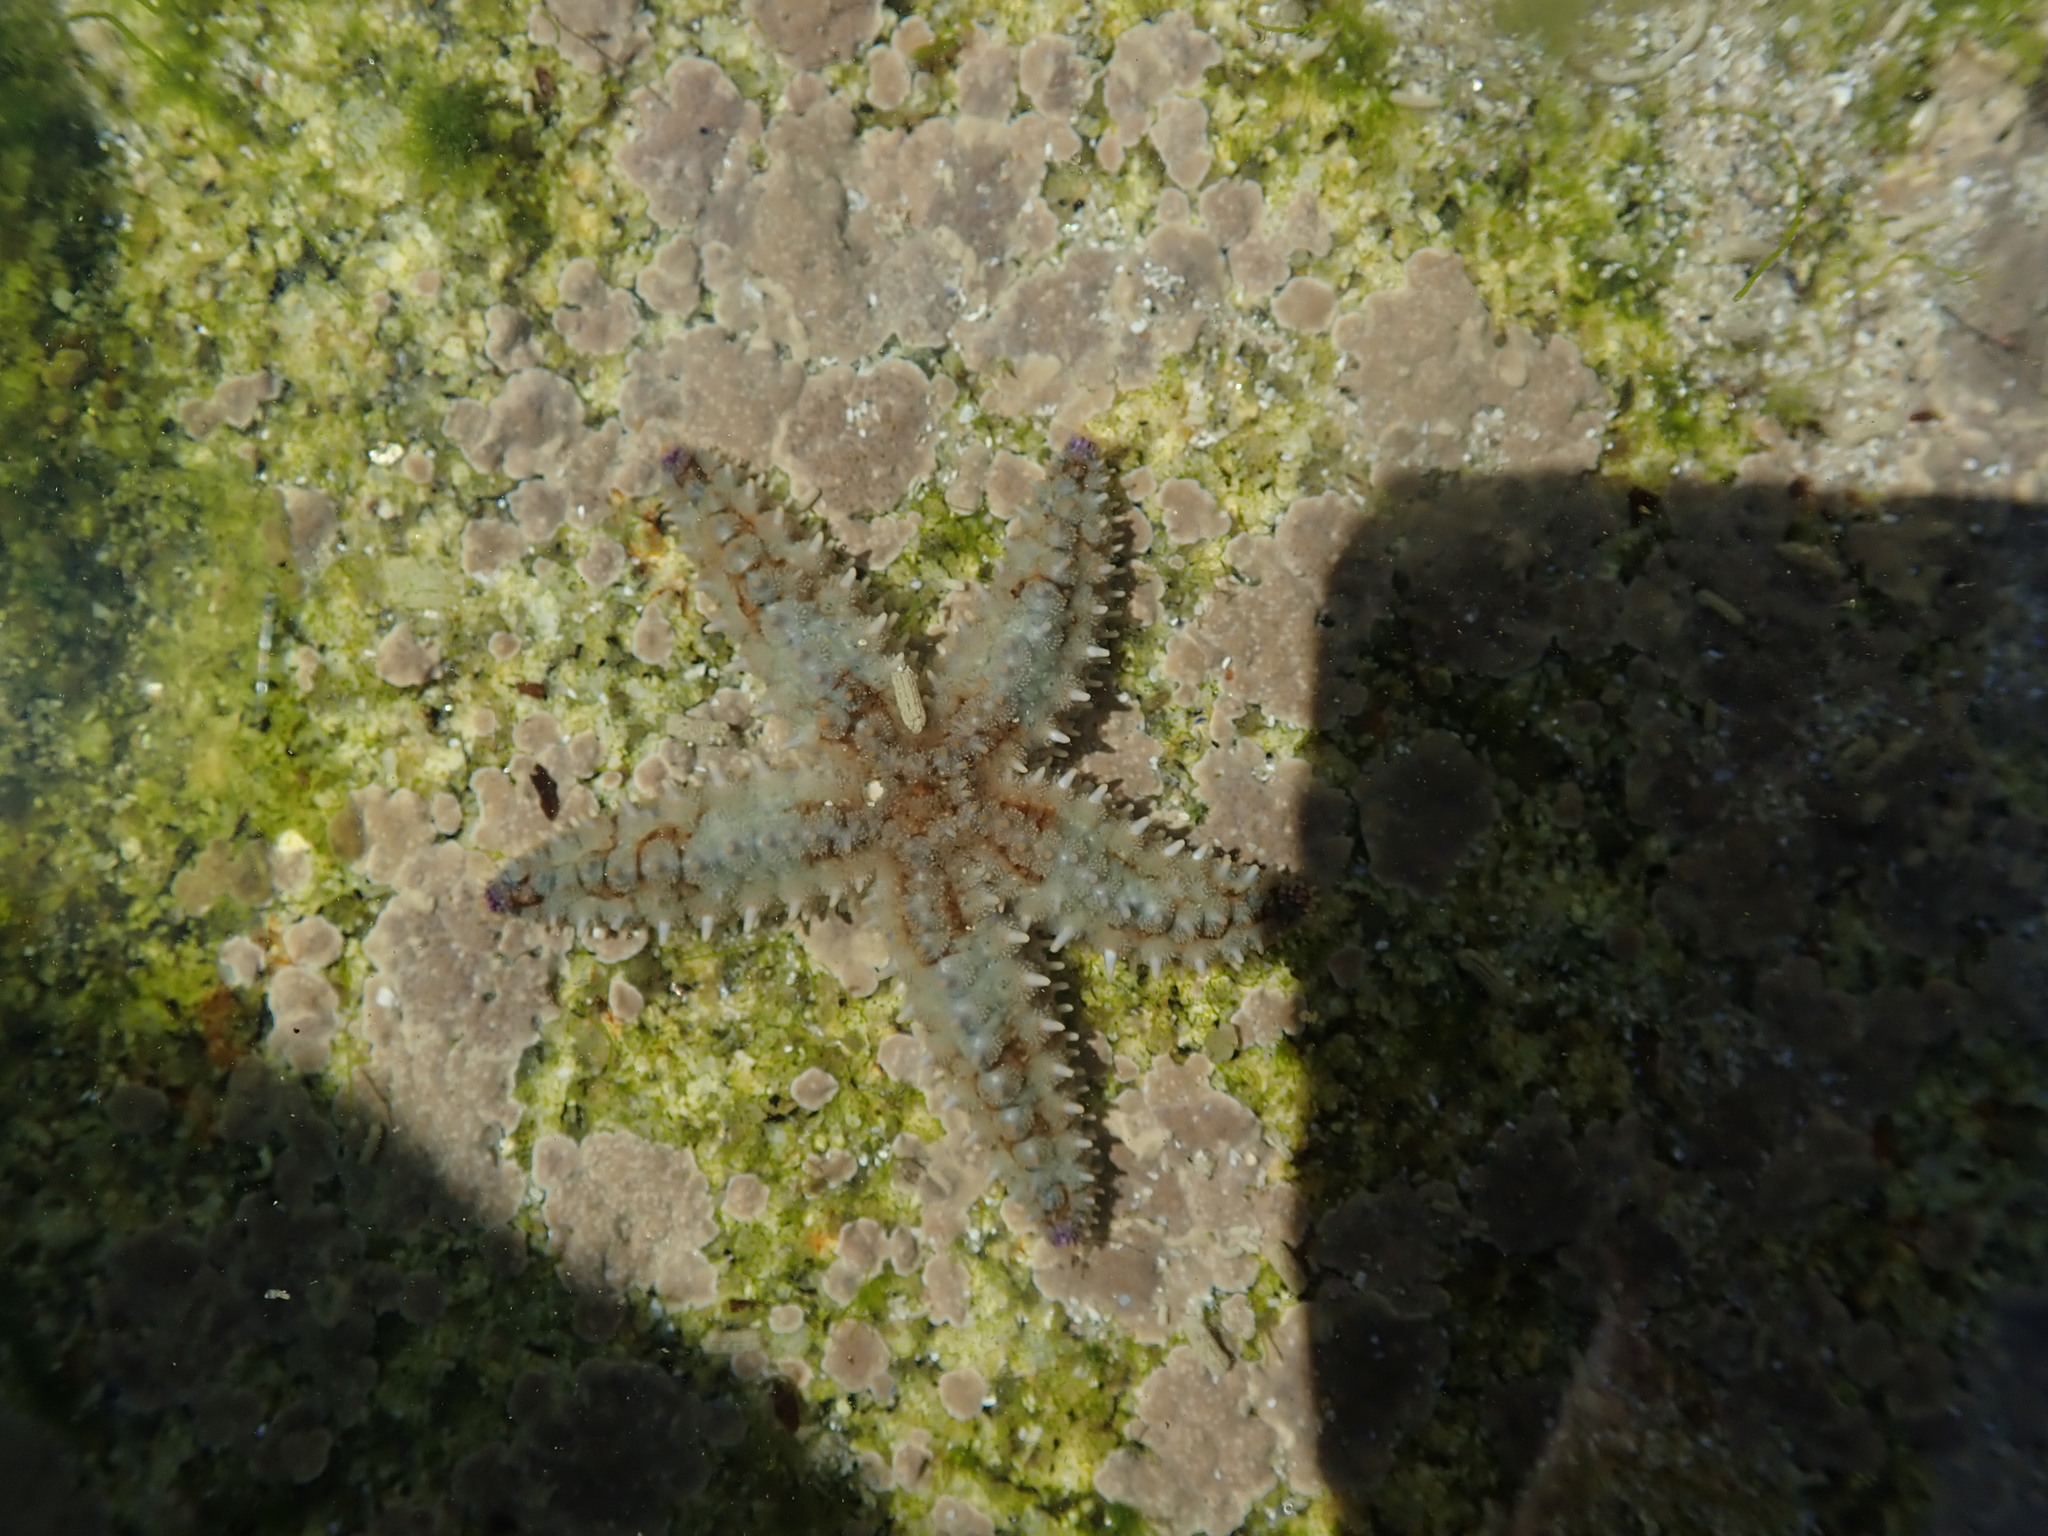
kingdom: Animalia
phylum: Echinodermata
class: Asteroidea
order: Forcipulatida
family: Asteriidae
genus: Marthasterias
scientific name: Marthasterias glacialis
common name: Spiny starfish
